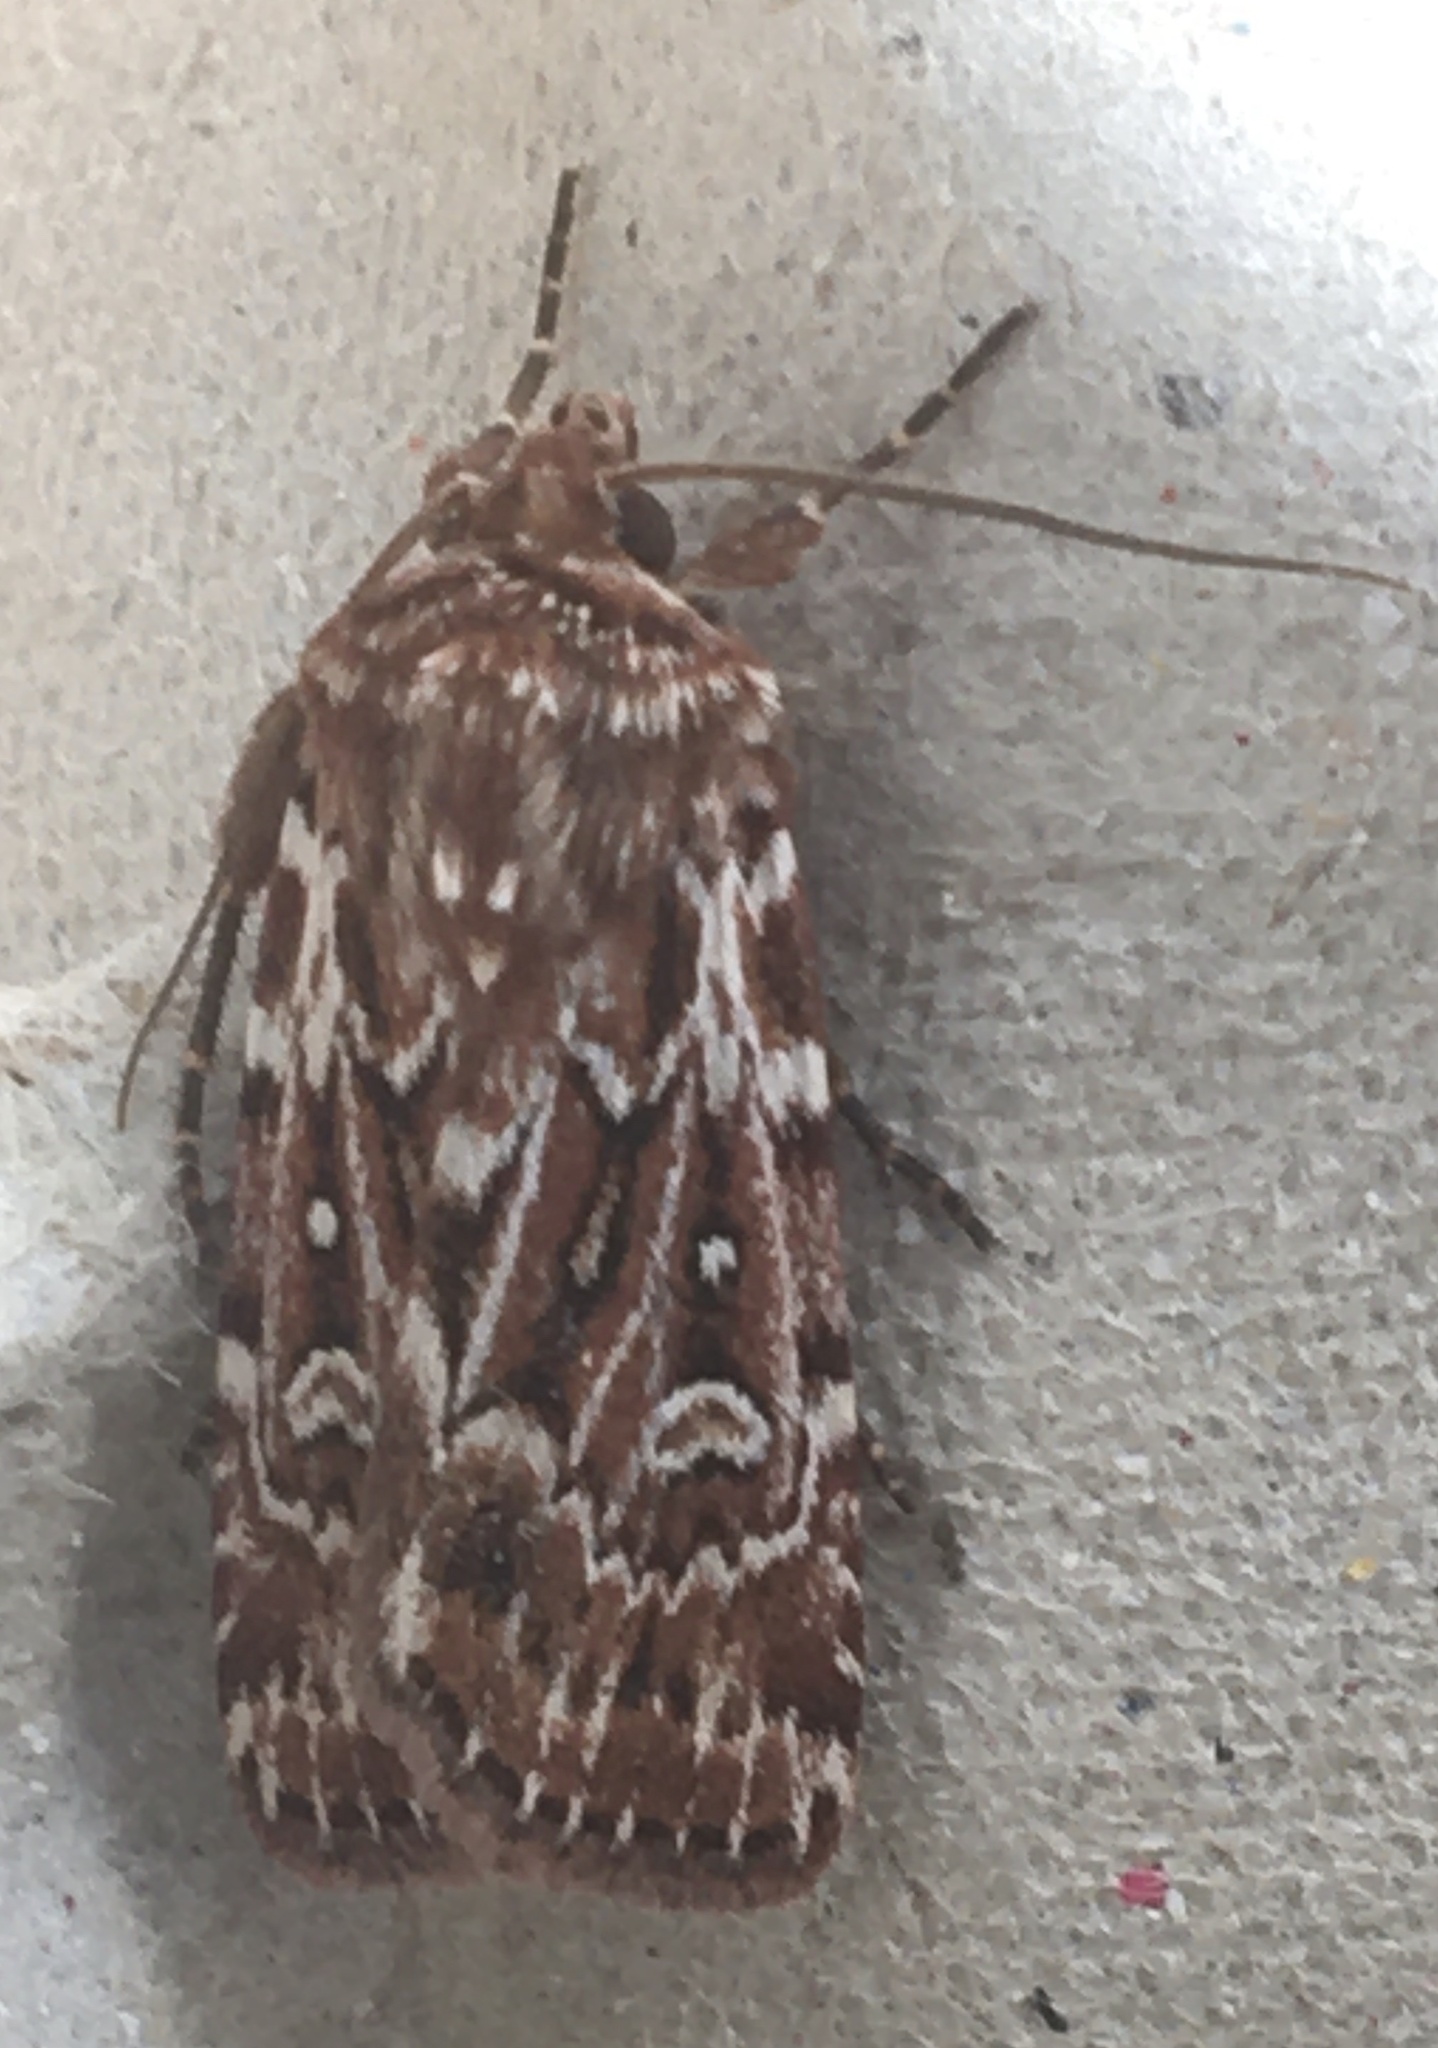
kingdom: Animalia
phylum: Arthropoda
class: Insecta
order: Lepidoptera
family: Noctuidae
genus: Lycophotia
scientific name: Lycophotia porphyrea
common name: True lover's knot
